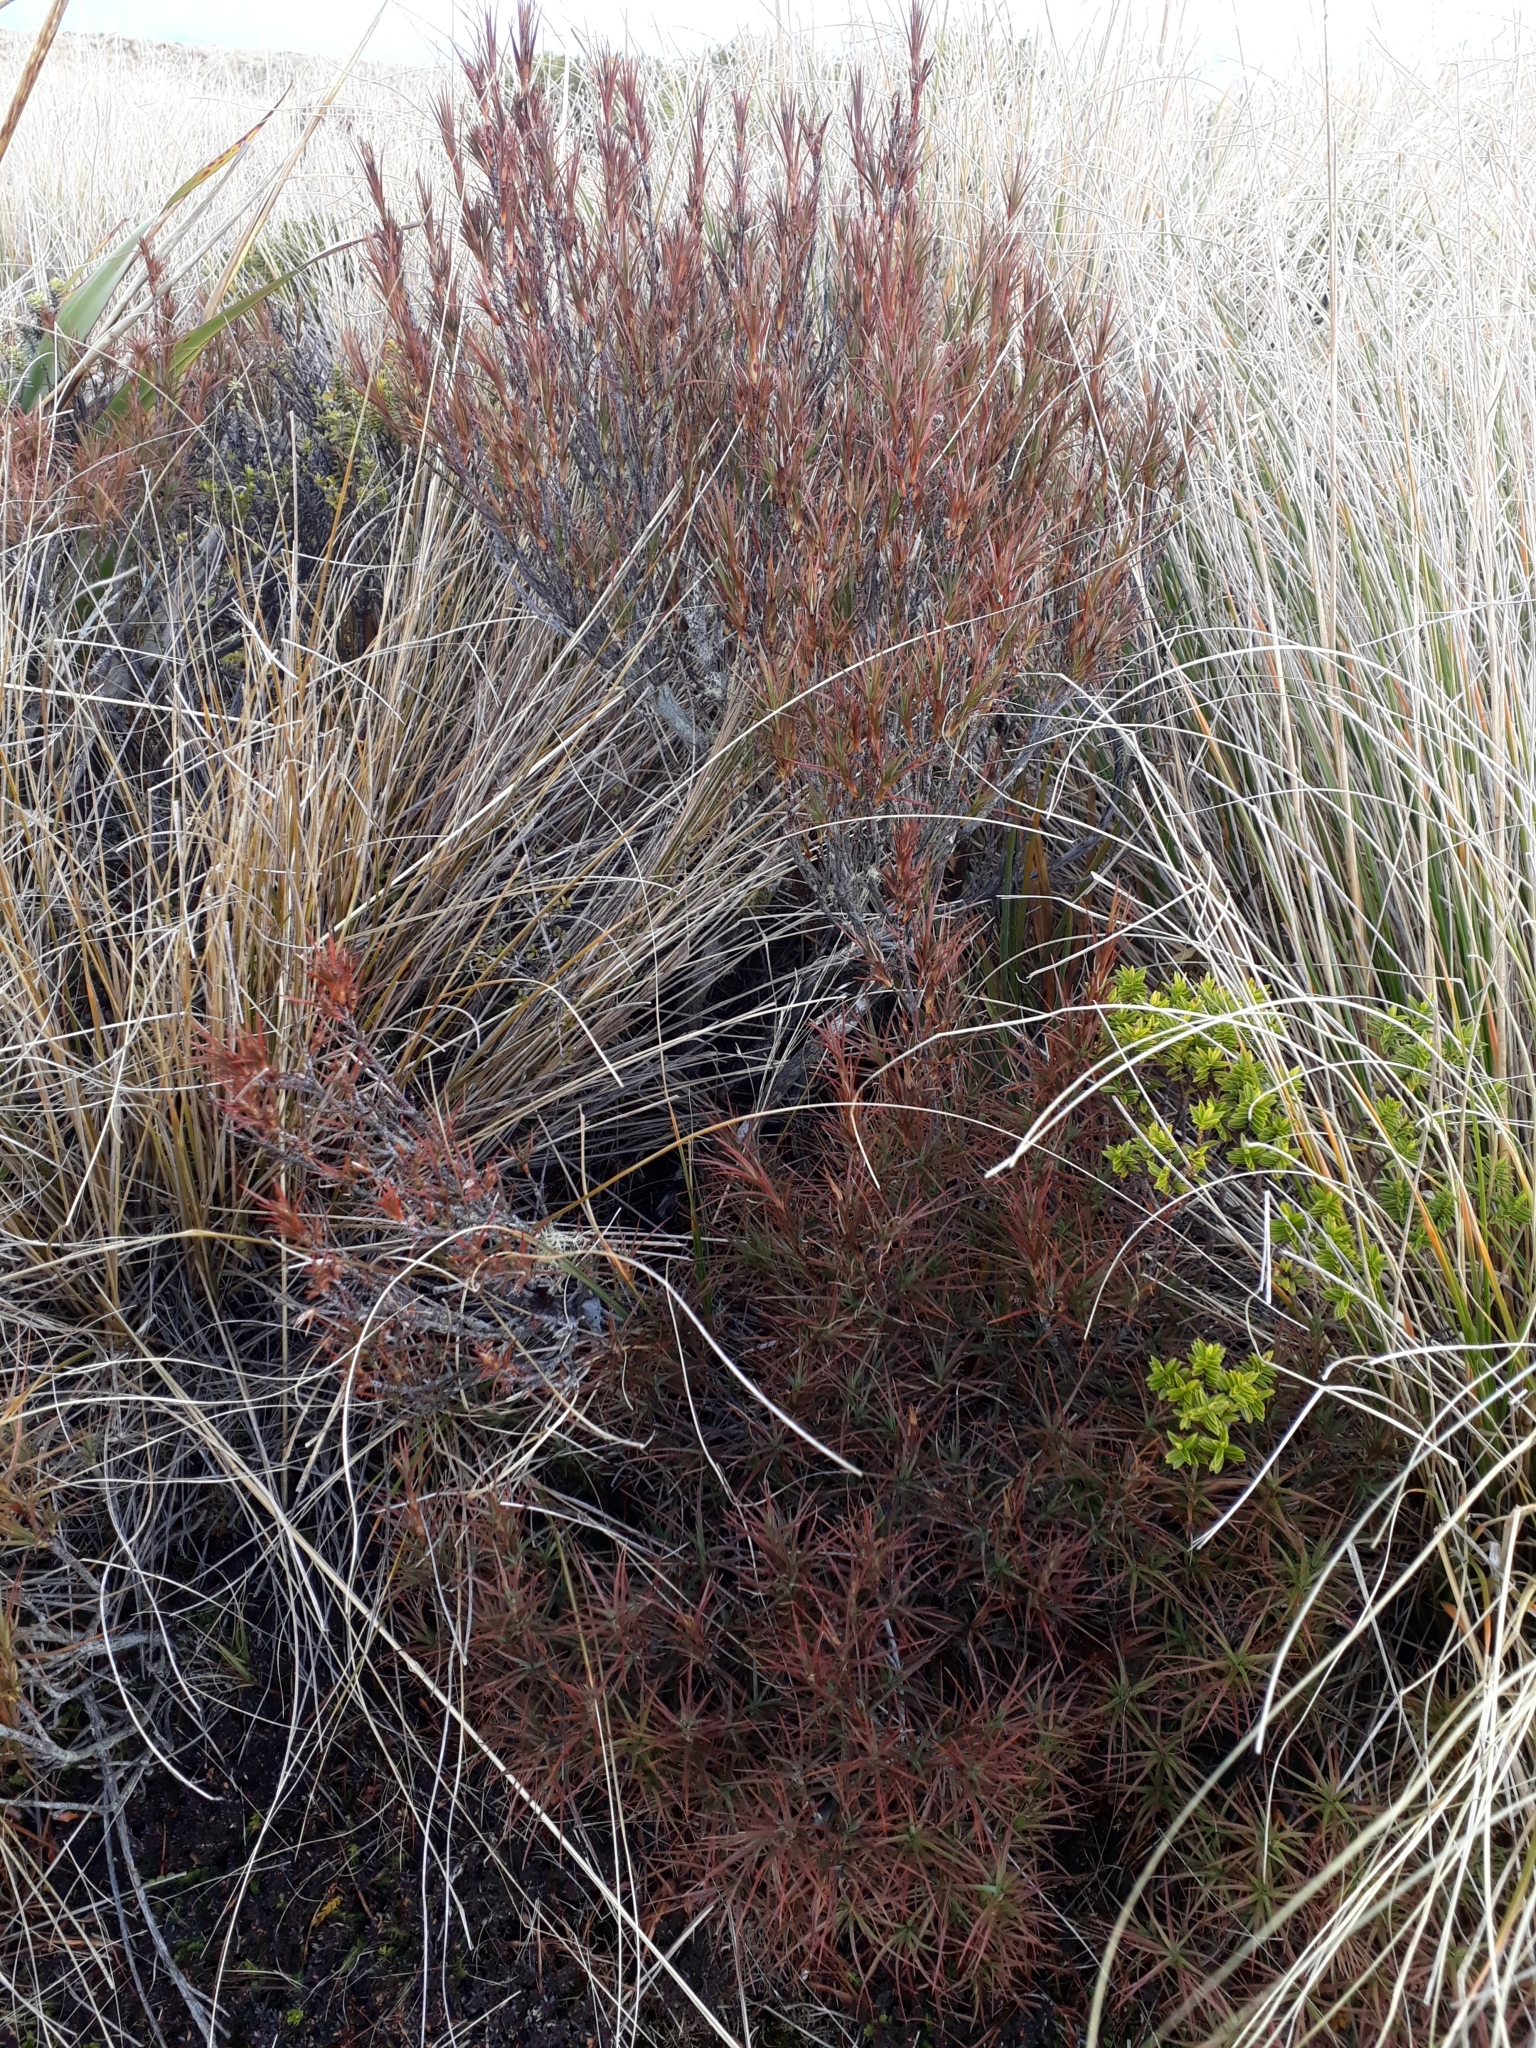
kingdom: Plantae
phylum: Tracheophyta
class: Magnoliopsida
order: Ericales
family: Ericaceae
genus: Dracophyllum
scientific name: Dracophyllum
